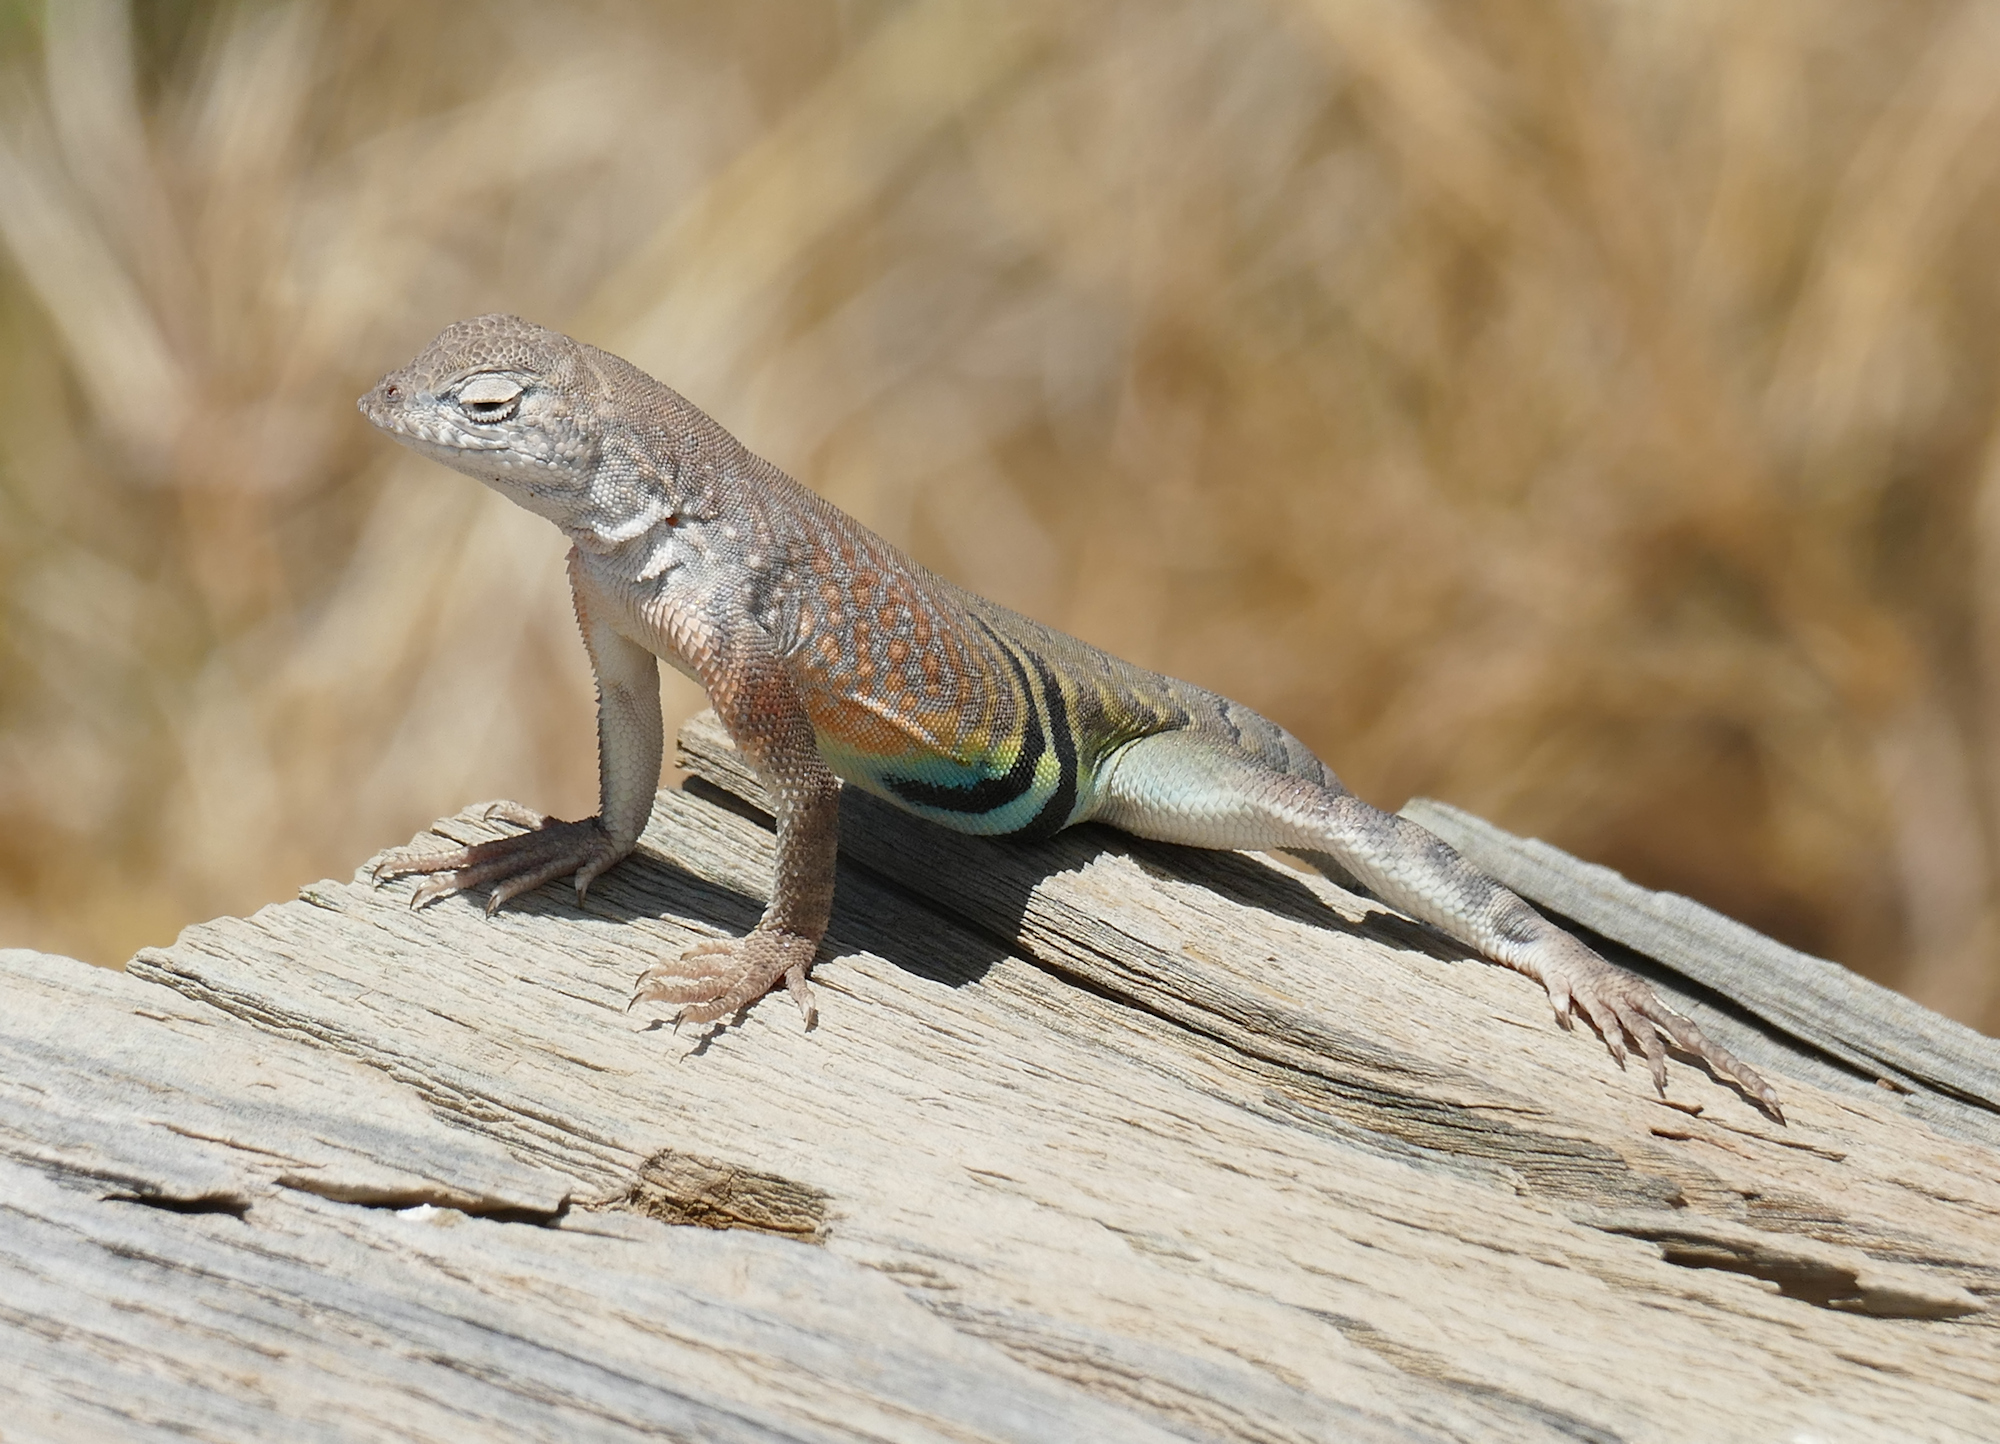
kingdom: Animalia
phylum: Chordata
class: Squamata
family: Phrynosomatidae
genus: Cophosaurus
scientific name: Cophosaurus texanus
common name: Greater earless lizard
